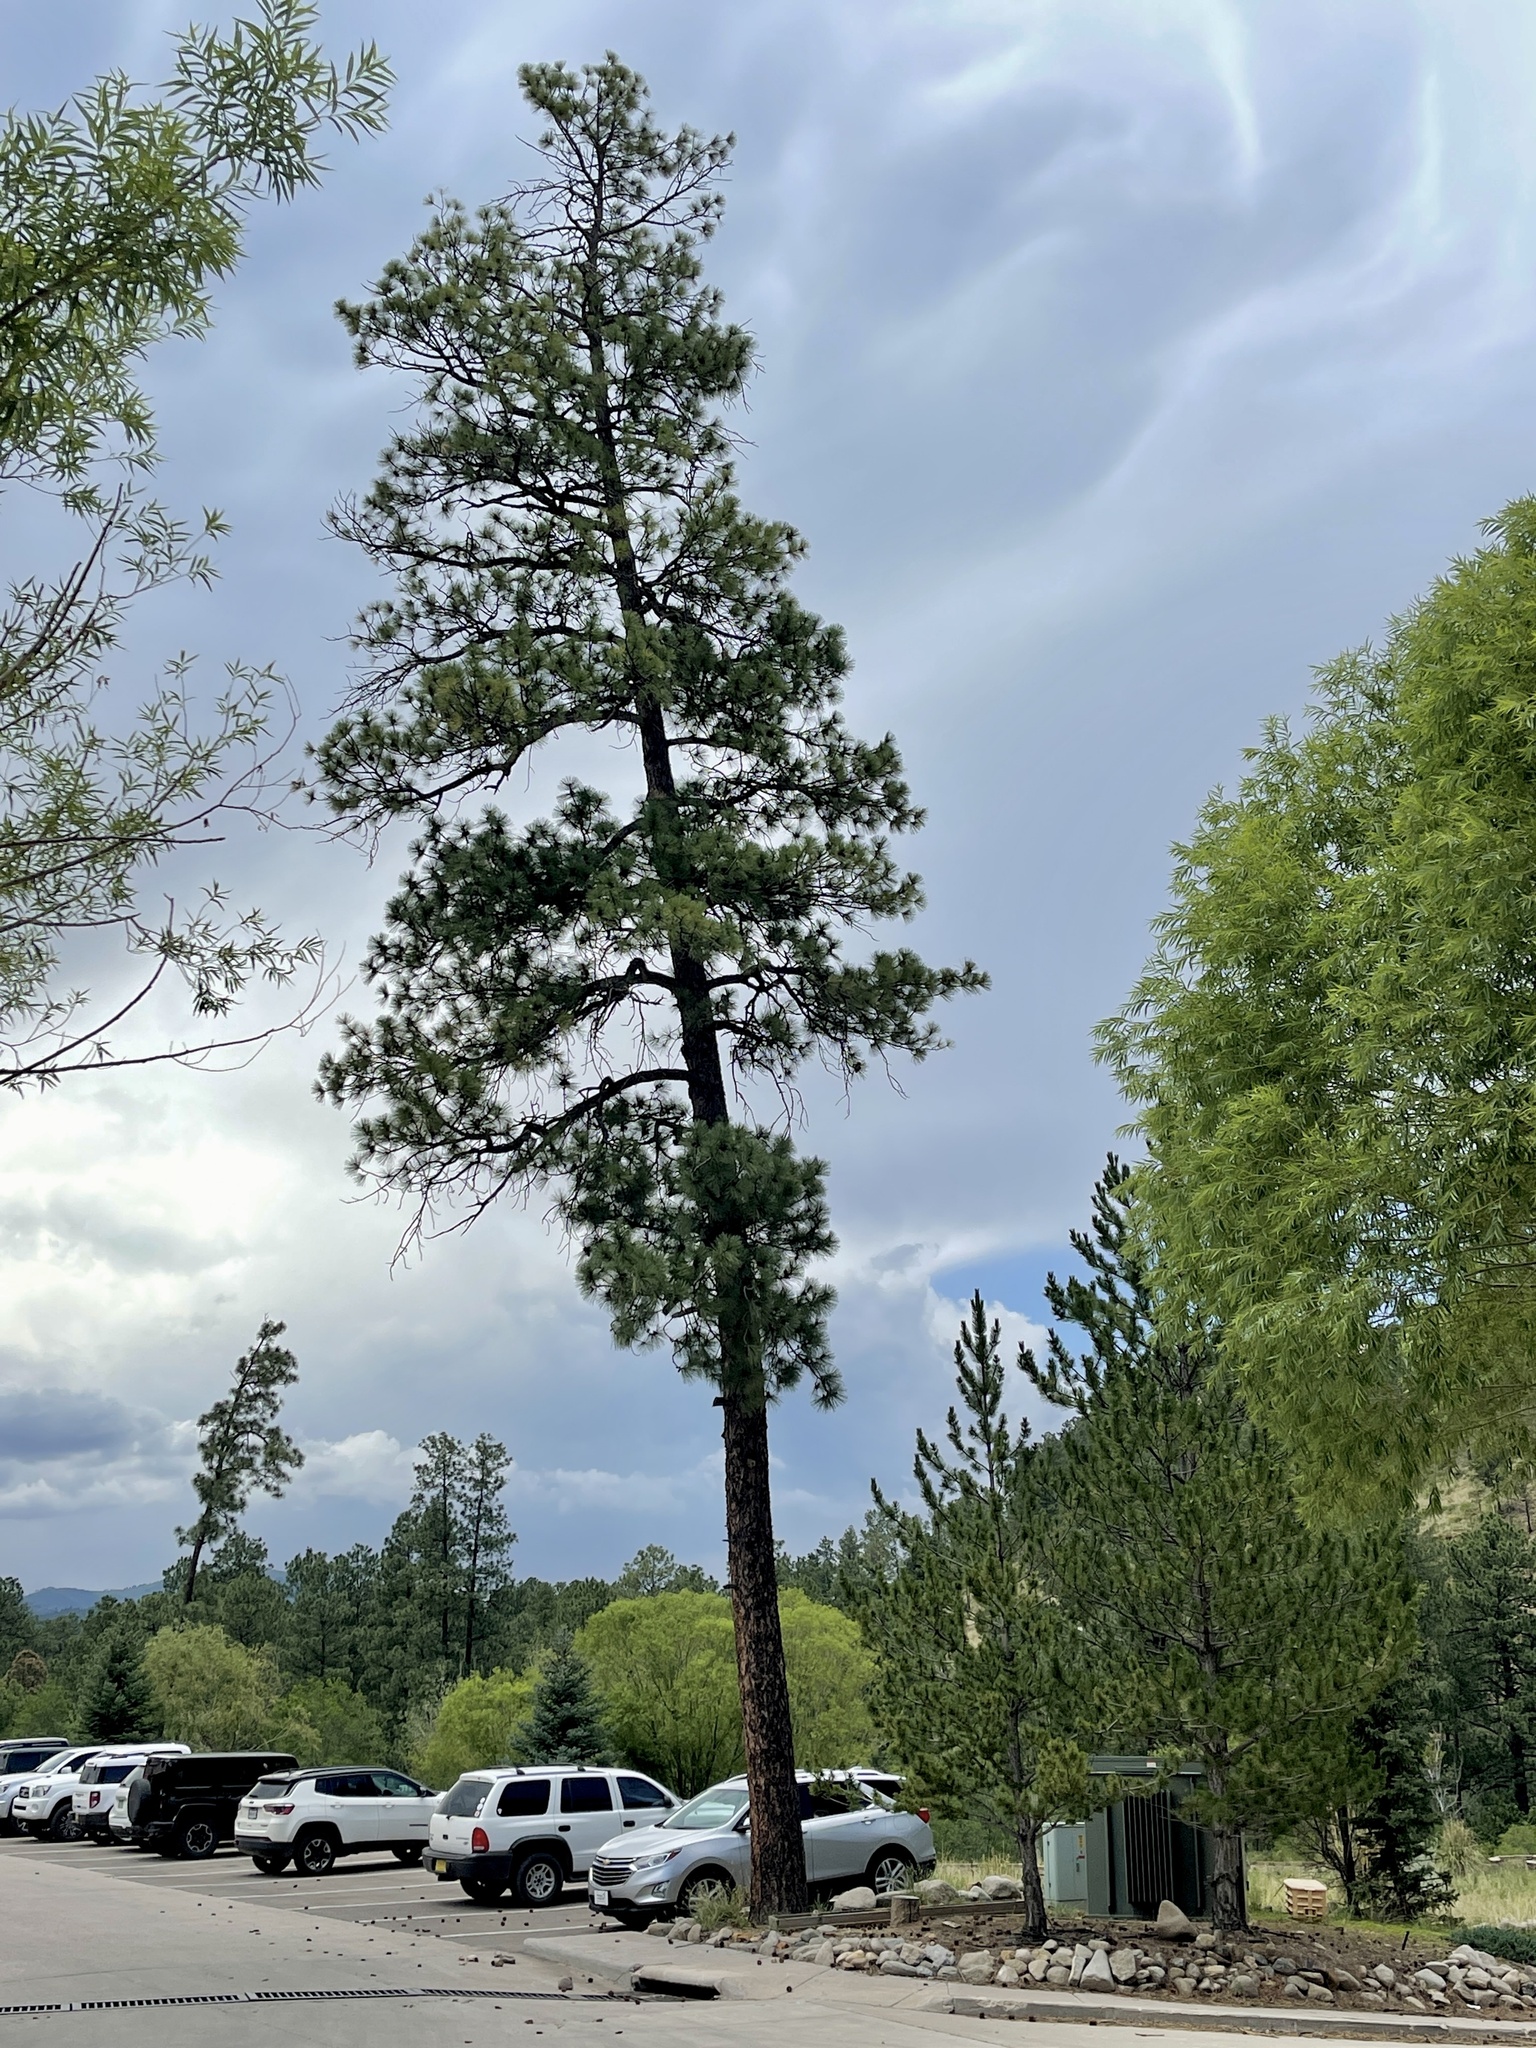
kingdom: Plantae
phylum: Tracheophyta
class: Pinopsida
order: Pinales
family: Pinaceae
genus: Pinus
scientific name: Pinus ponderosa
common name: Western yellow-pine
